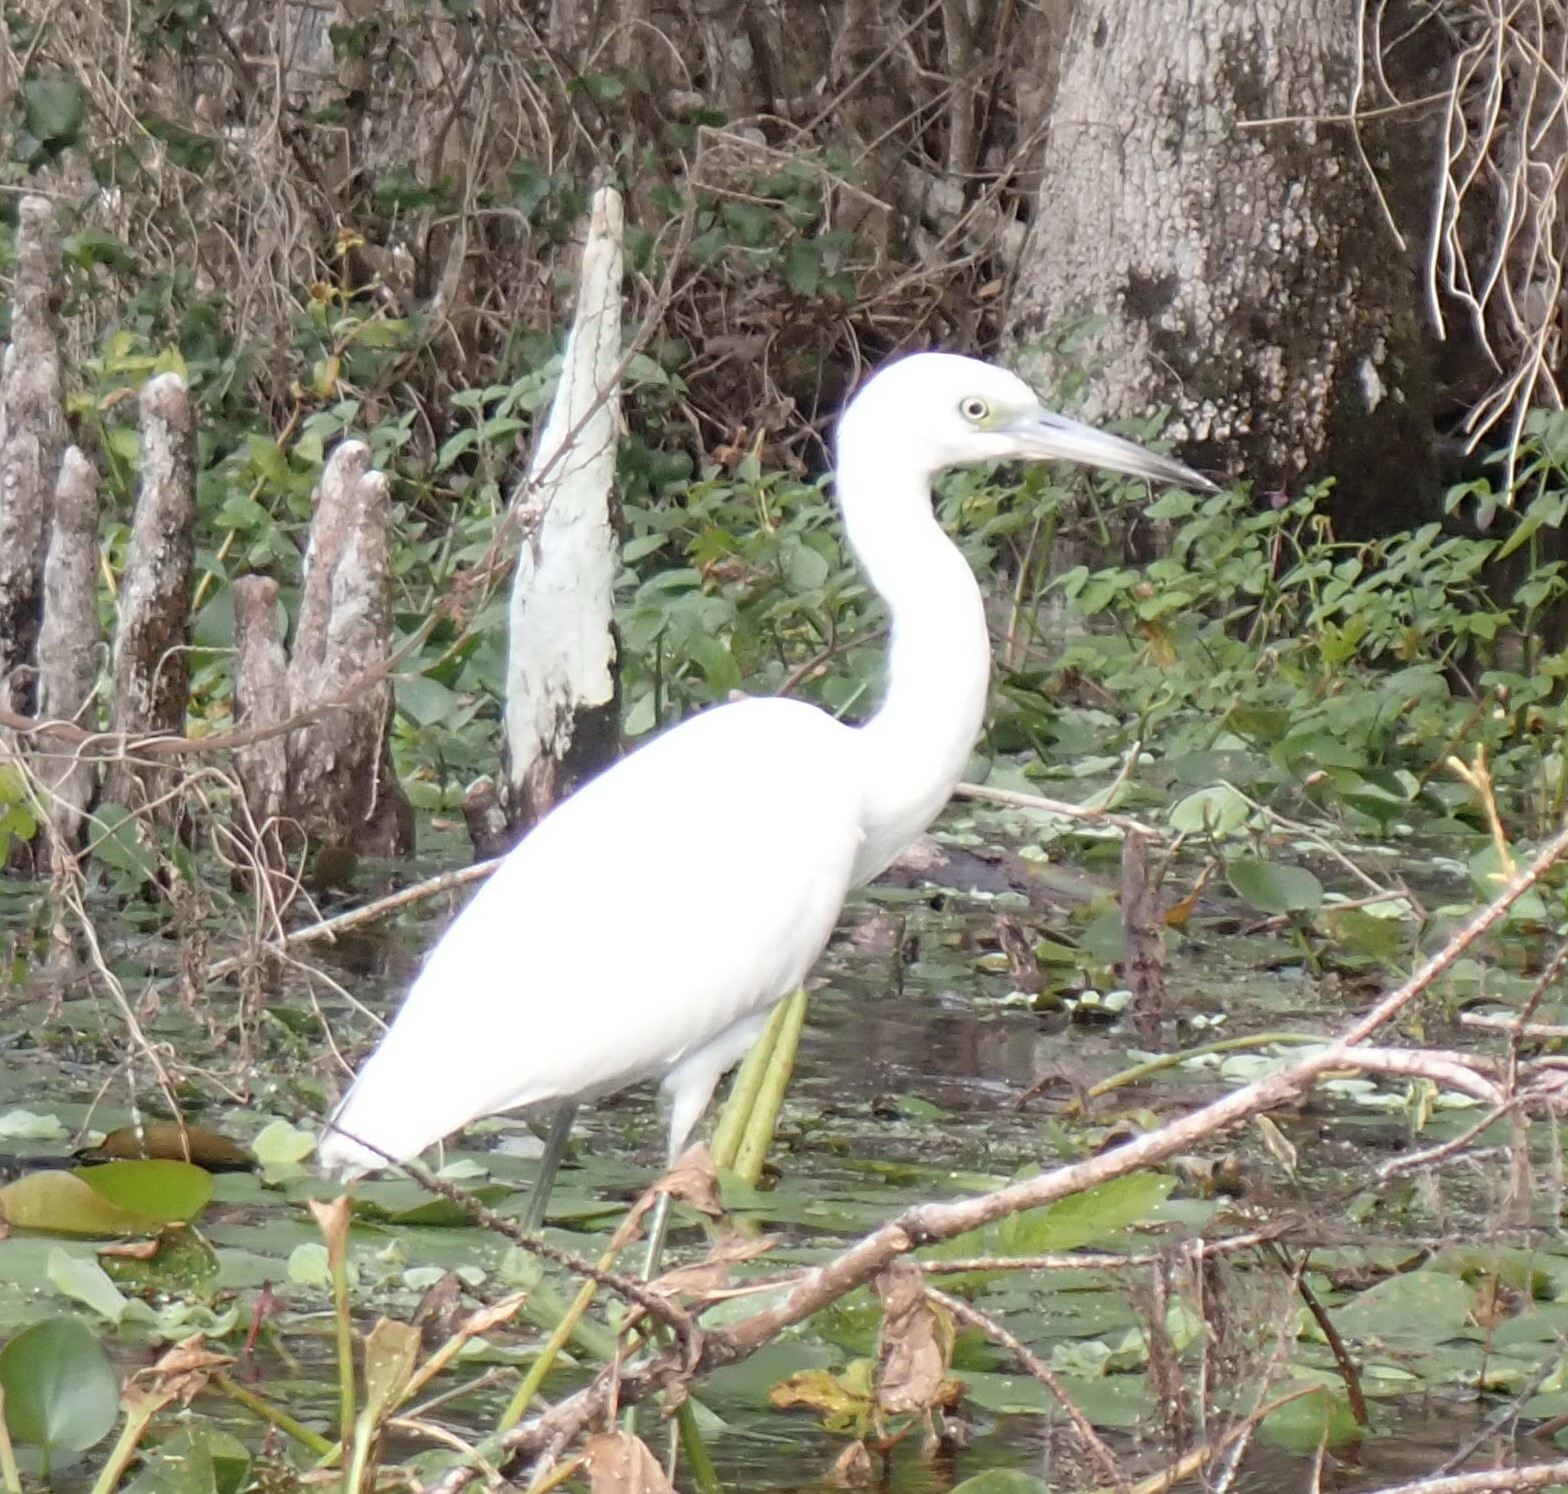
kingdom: Animalia
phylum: Chordata
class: Aves
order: Pelecaniformes
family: Ardeidae
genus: Egretta
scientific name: Egretta caerulea
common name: Little blue heron
